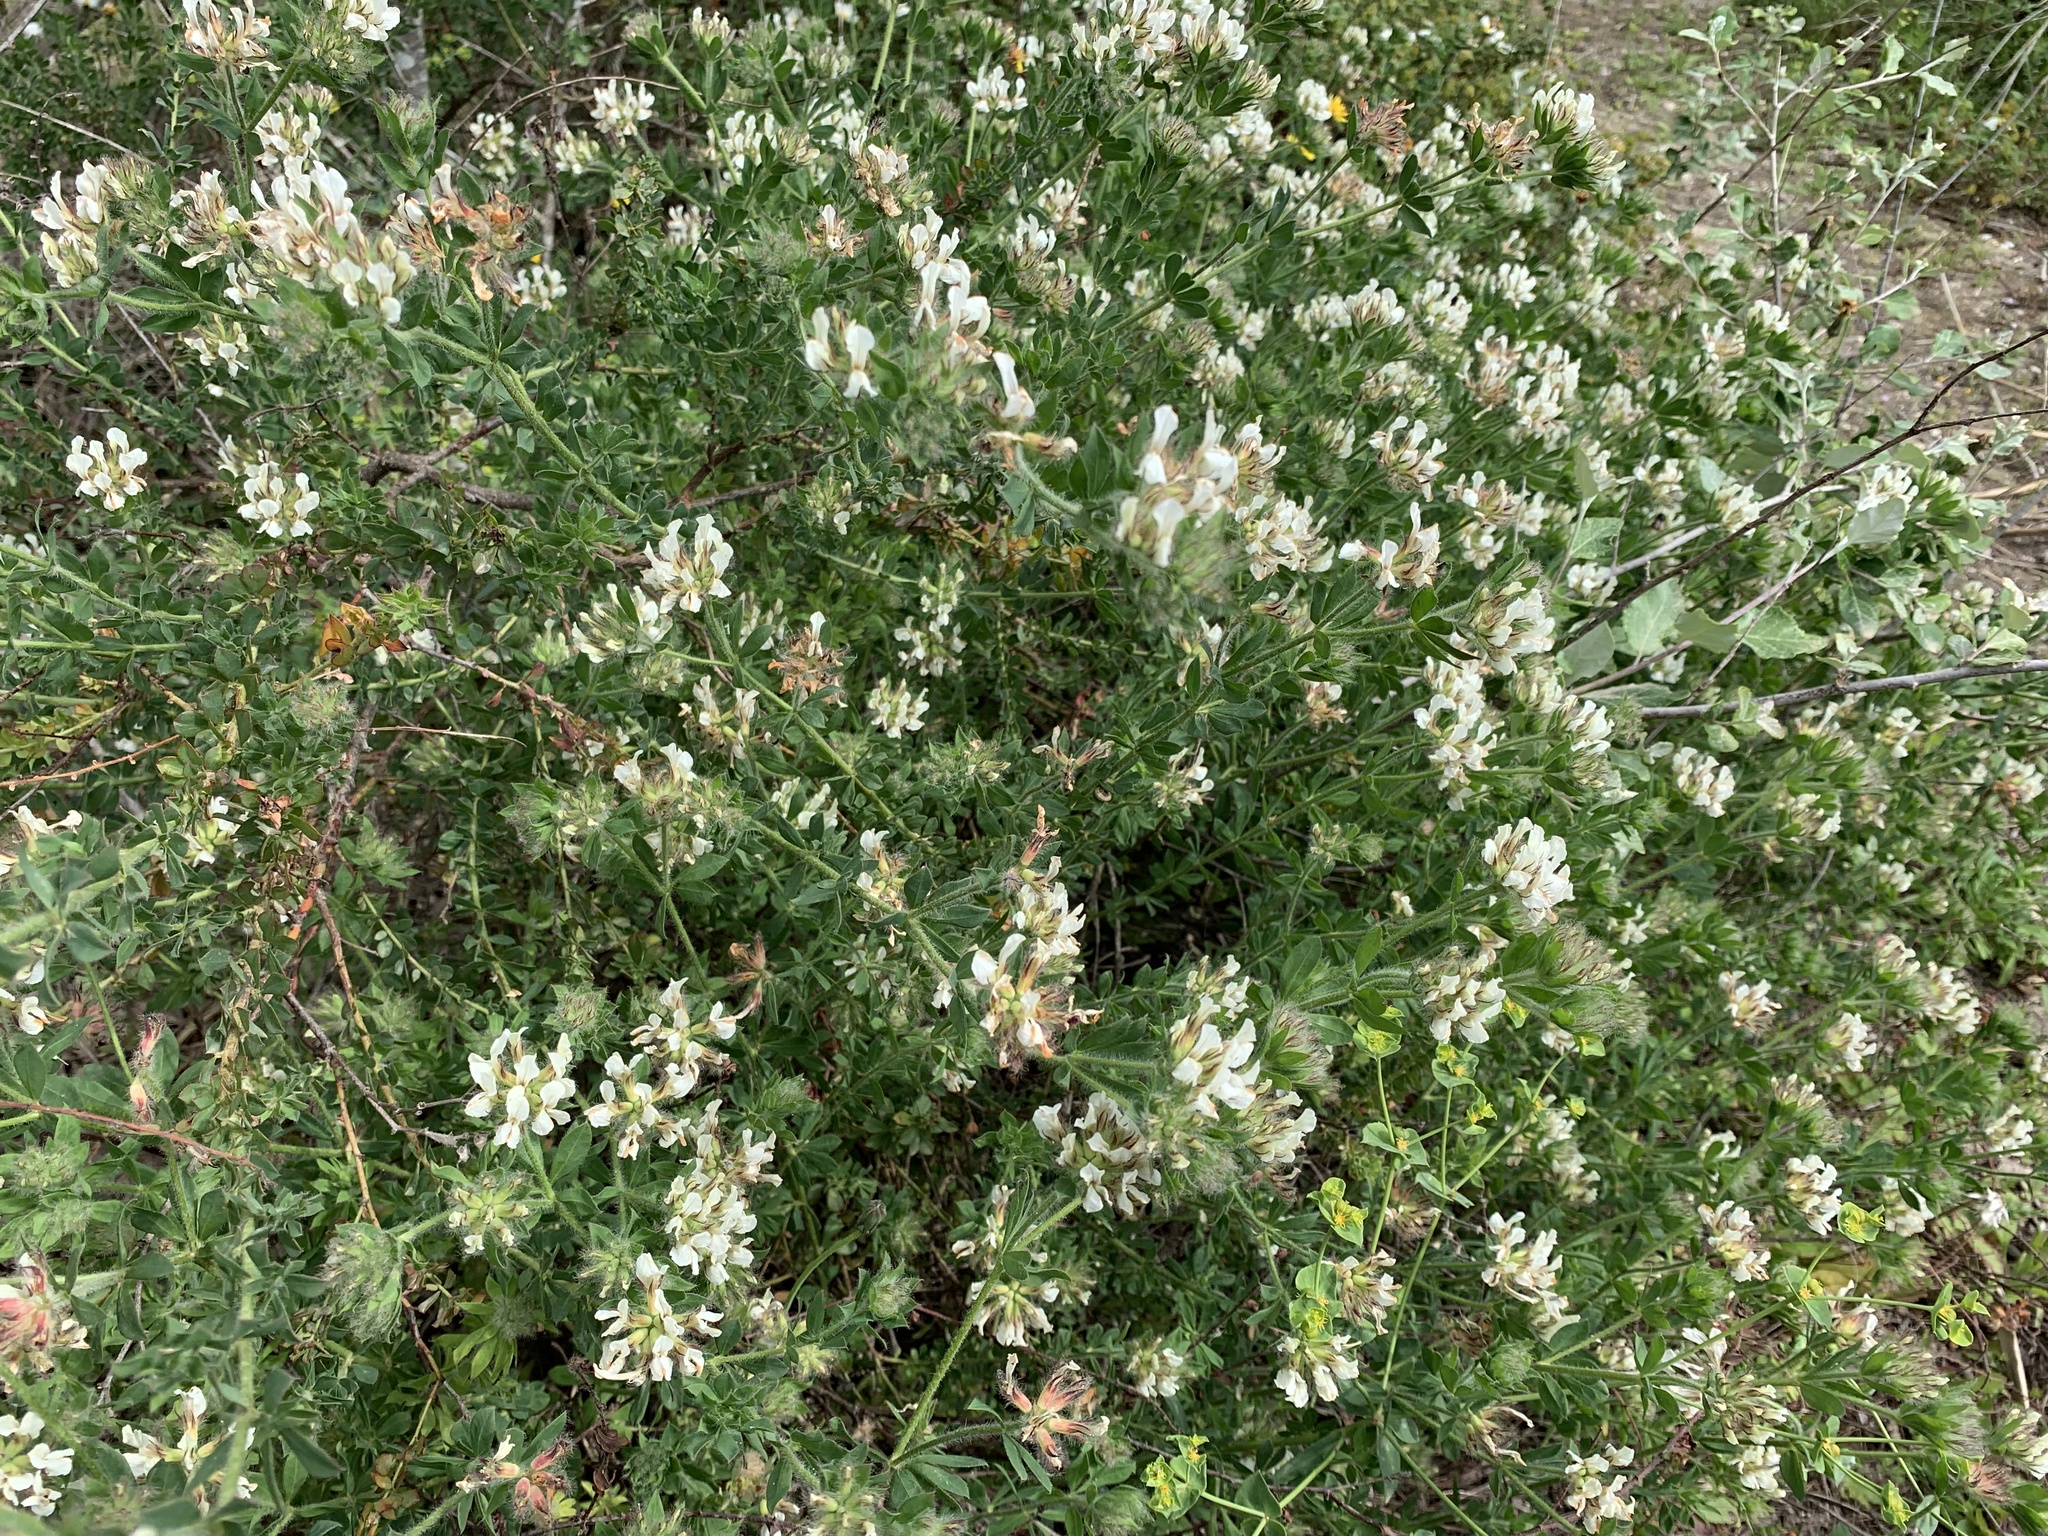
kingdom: Plantae
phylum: Tracheophyta
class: Magnoliopsida
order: Fabales
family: Fabaceae
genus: Lotus
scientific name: Lotus hirsutus
